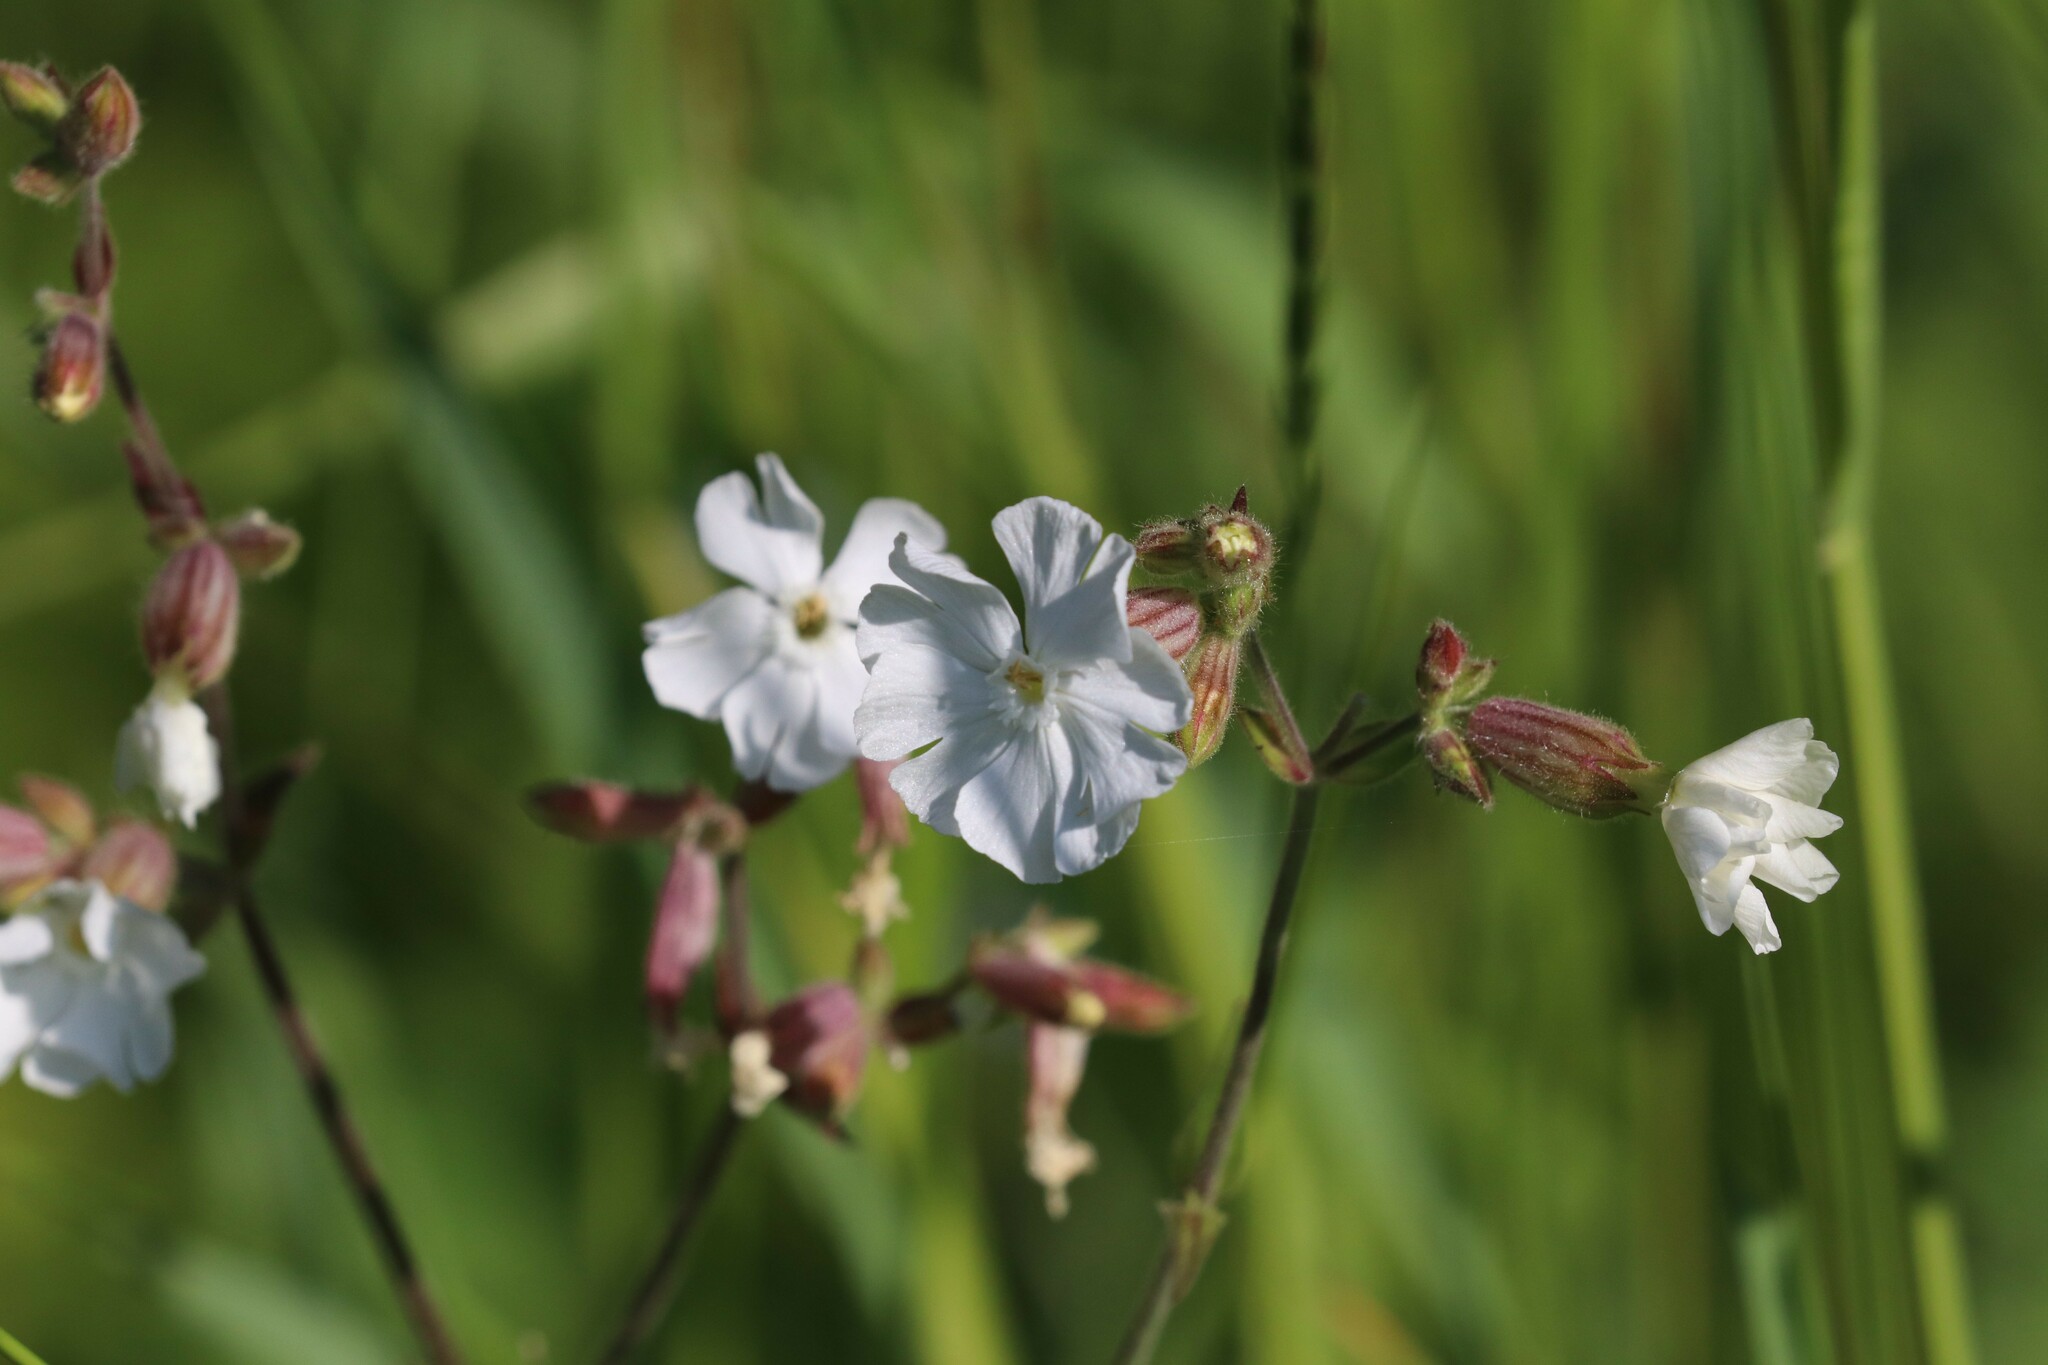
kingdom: Plantae
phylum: Tracheophyta
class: Magnoliopsida
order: Caryophyllales
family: Caryophyllaceae
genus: Silene
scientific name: Silene latifolia
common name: White campion
